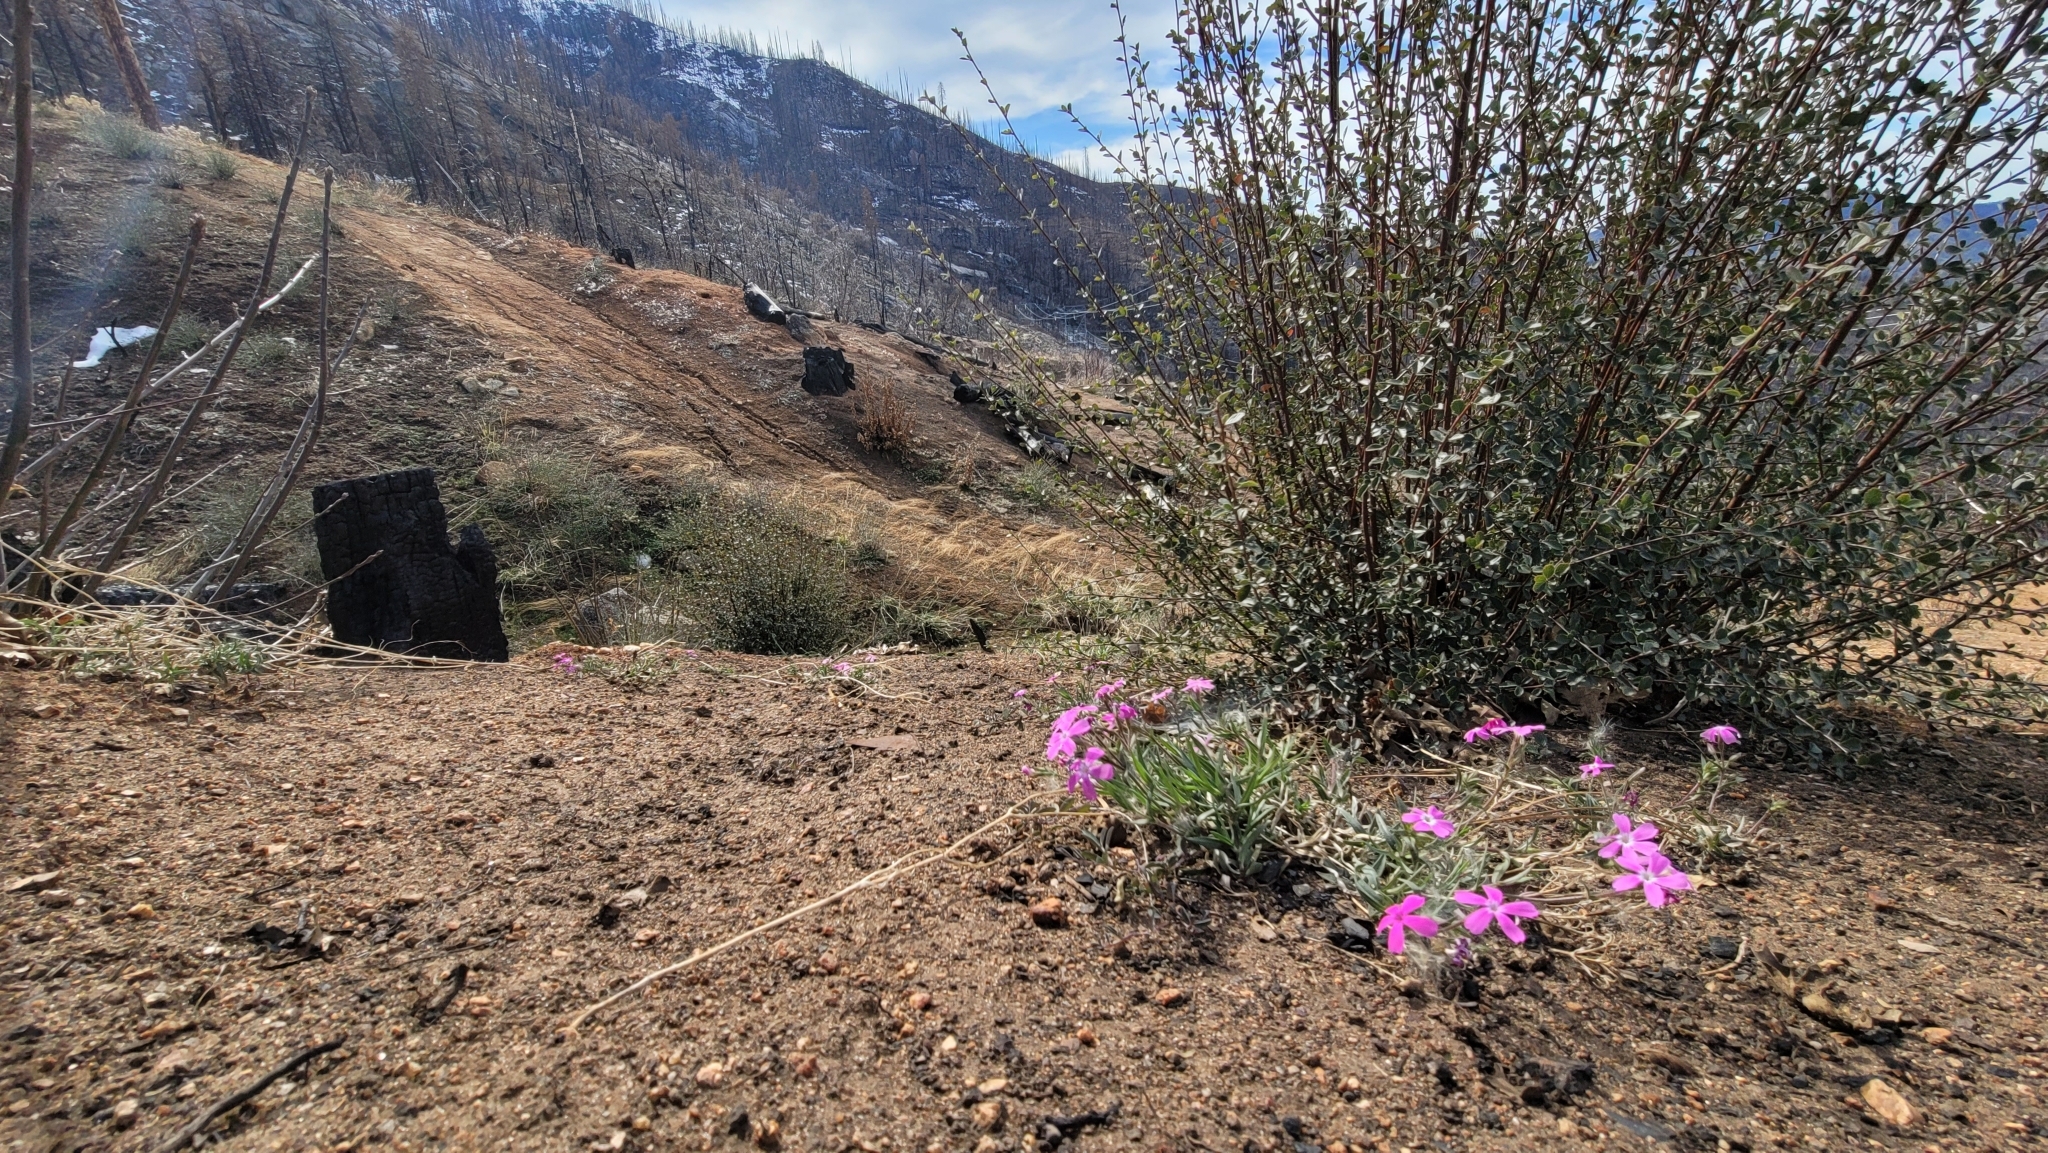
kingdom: Plantae
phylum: Tracheophyta
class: Magnoliopsida
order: Ericales
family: Polemoniaceae
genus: Phlox
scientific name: Phlox speciosa
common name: Bush phlox
